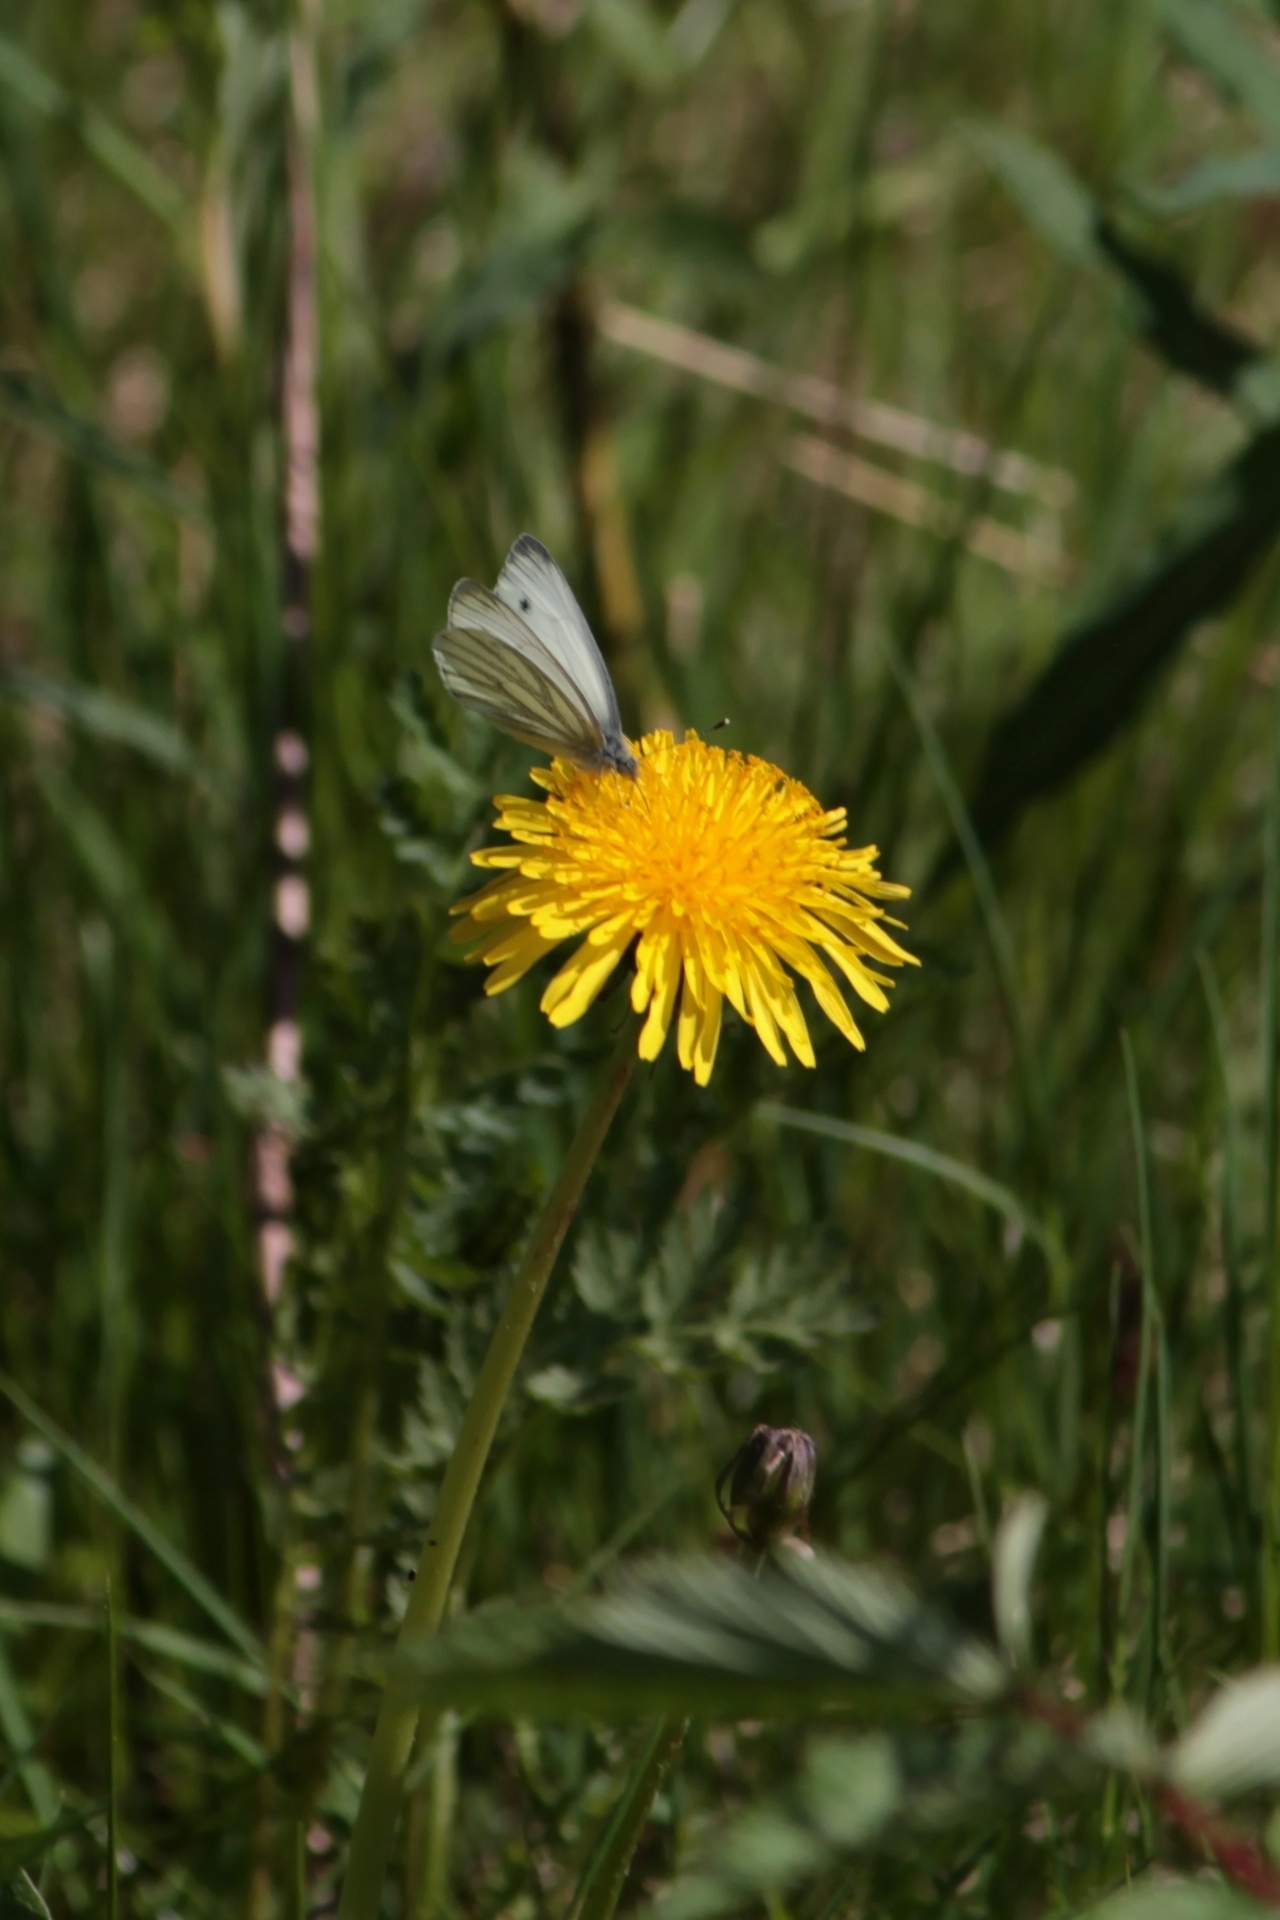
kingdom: Animalia
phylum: Arthropoda
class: Insecta
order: Lepidoptera
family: Pieridae
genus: Pieris
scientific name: Pieris napi
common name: Green-veined white
